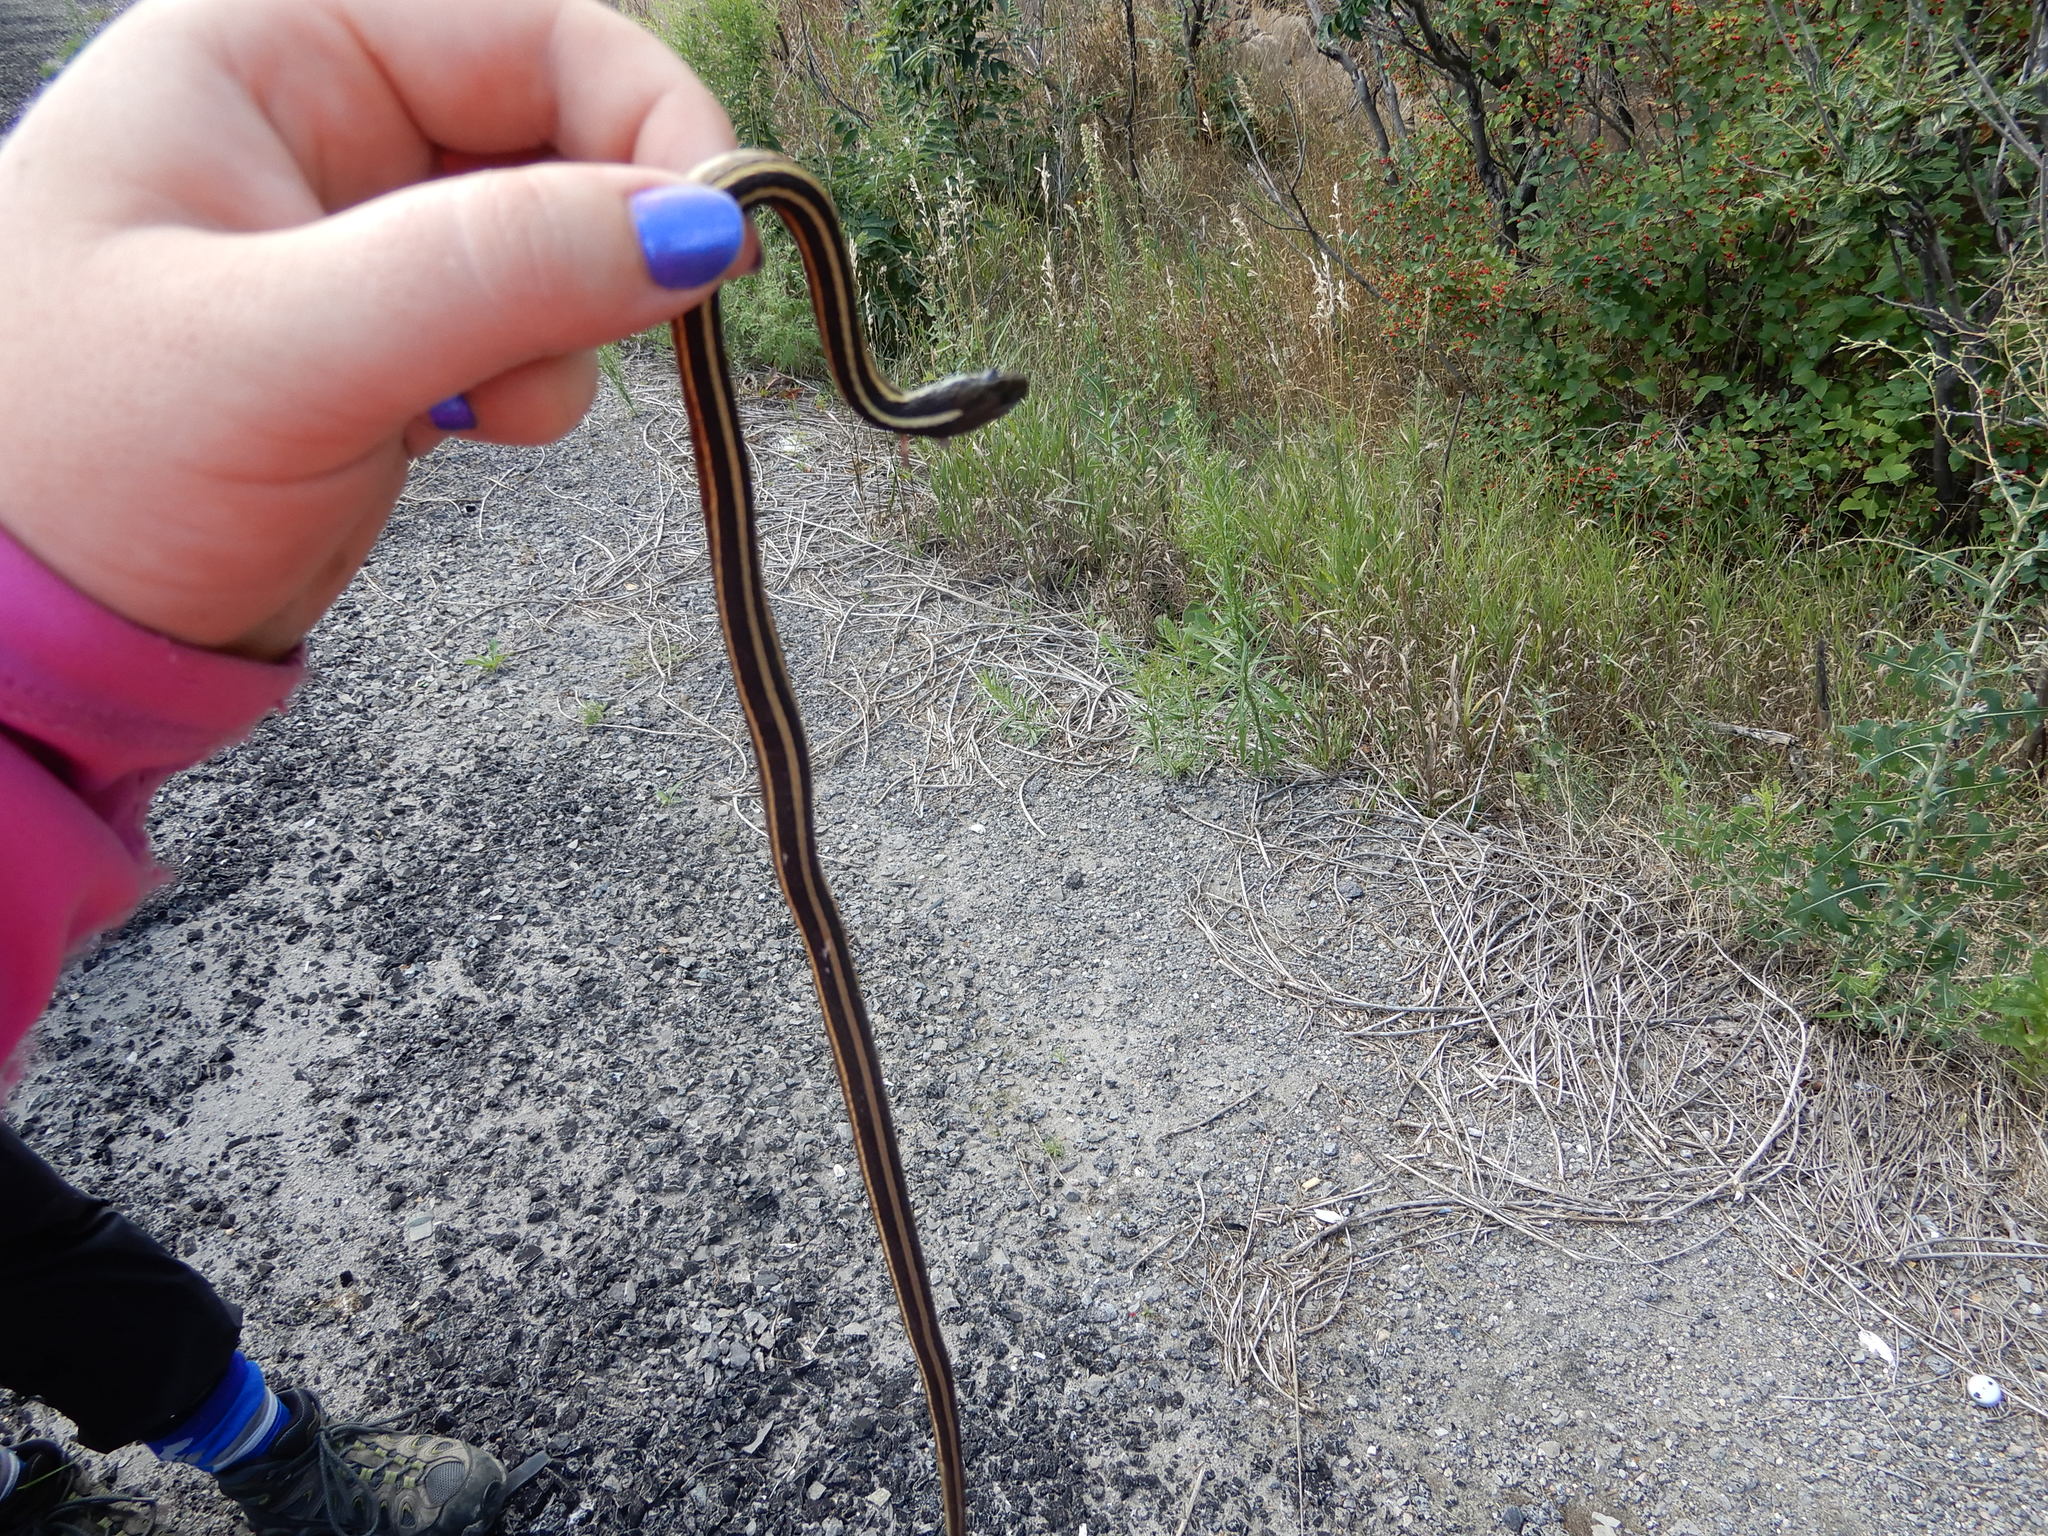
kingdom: Animalia
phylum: Chordata
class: Squamata
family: Colubridae
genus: Thamnophis
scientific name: Thamnophis saurita
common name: Eastern ribbonsnake
